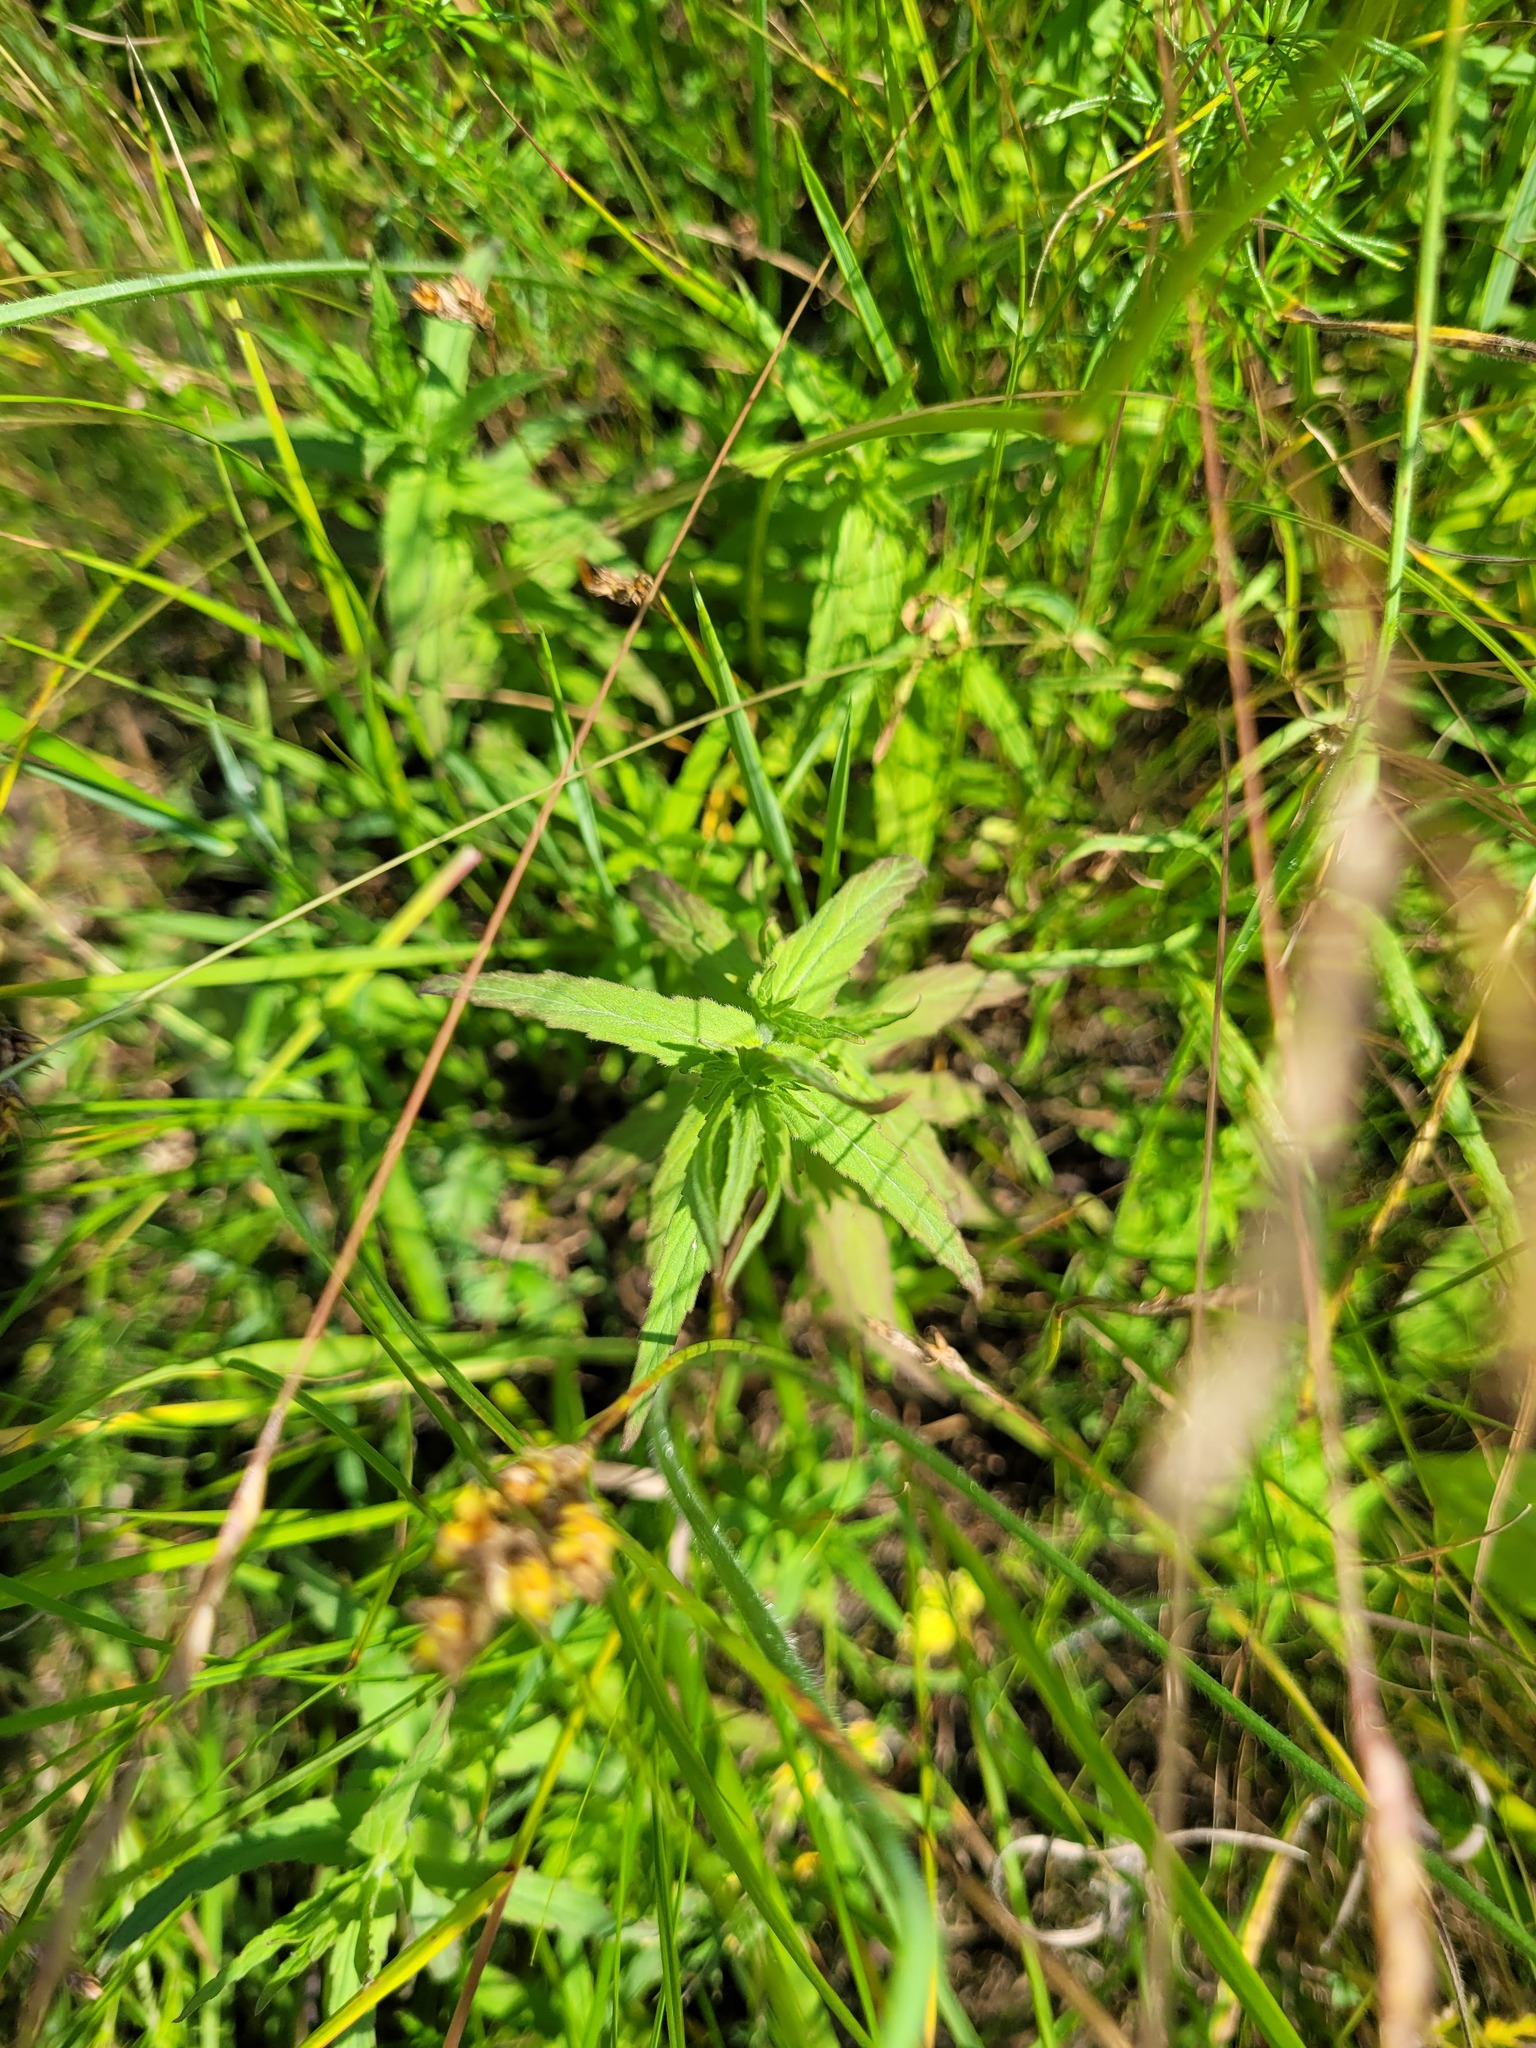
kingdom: Plantae
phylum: Tracheophyta
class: Magnoliopsida
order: Lamiales
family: Orobanchaceae
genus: Odontites
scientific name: Odontites vulgaris
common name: Broomrape
